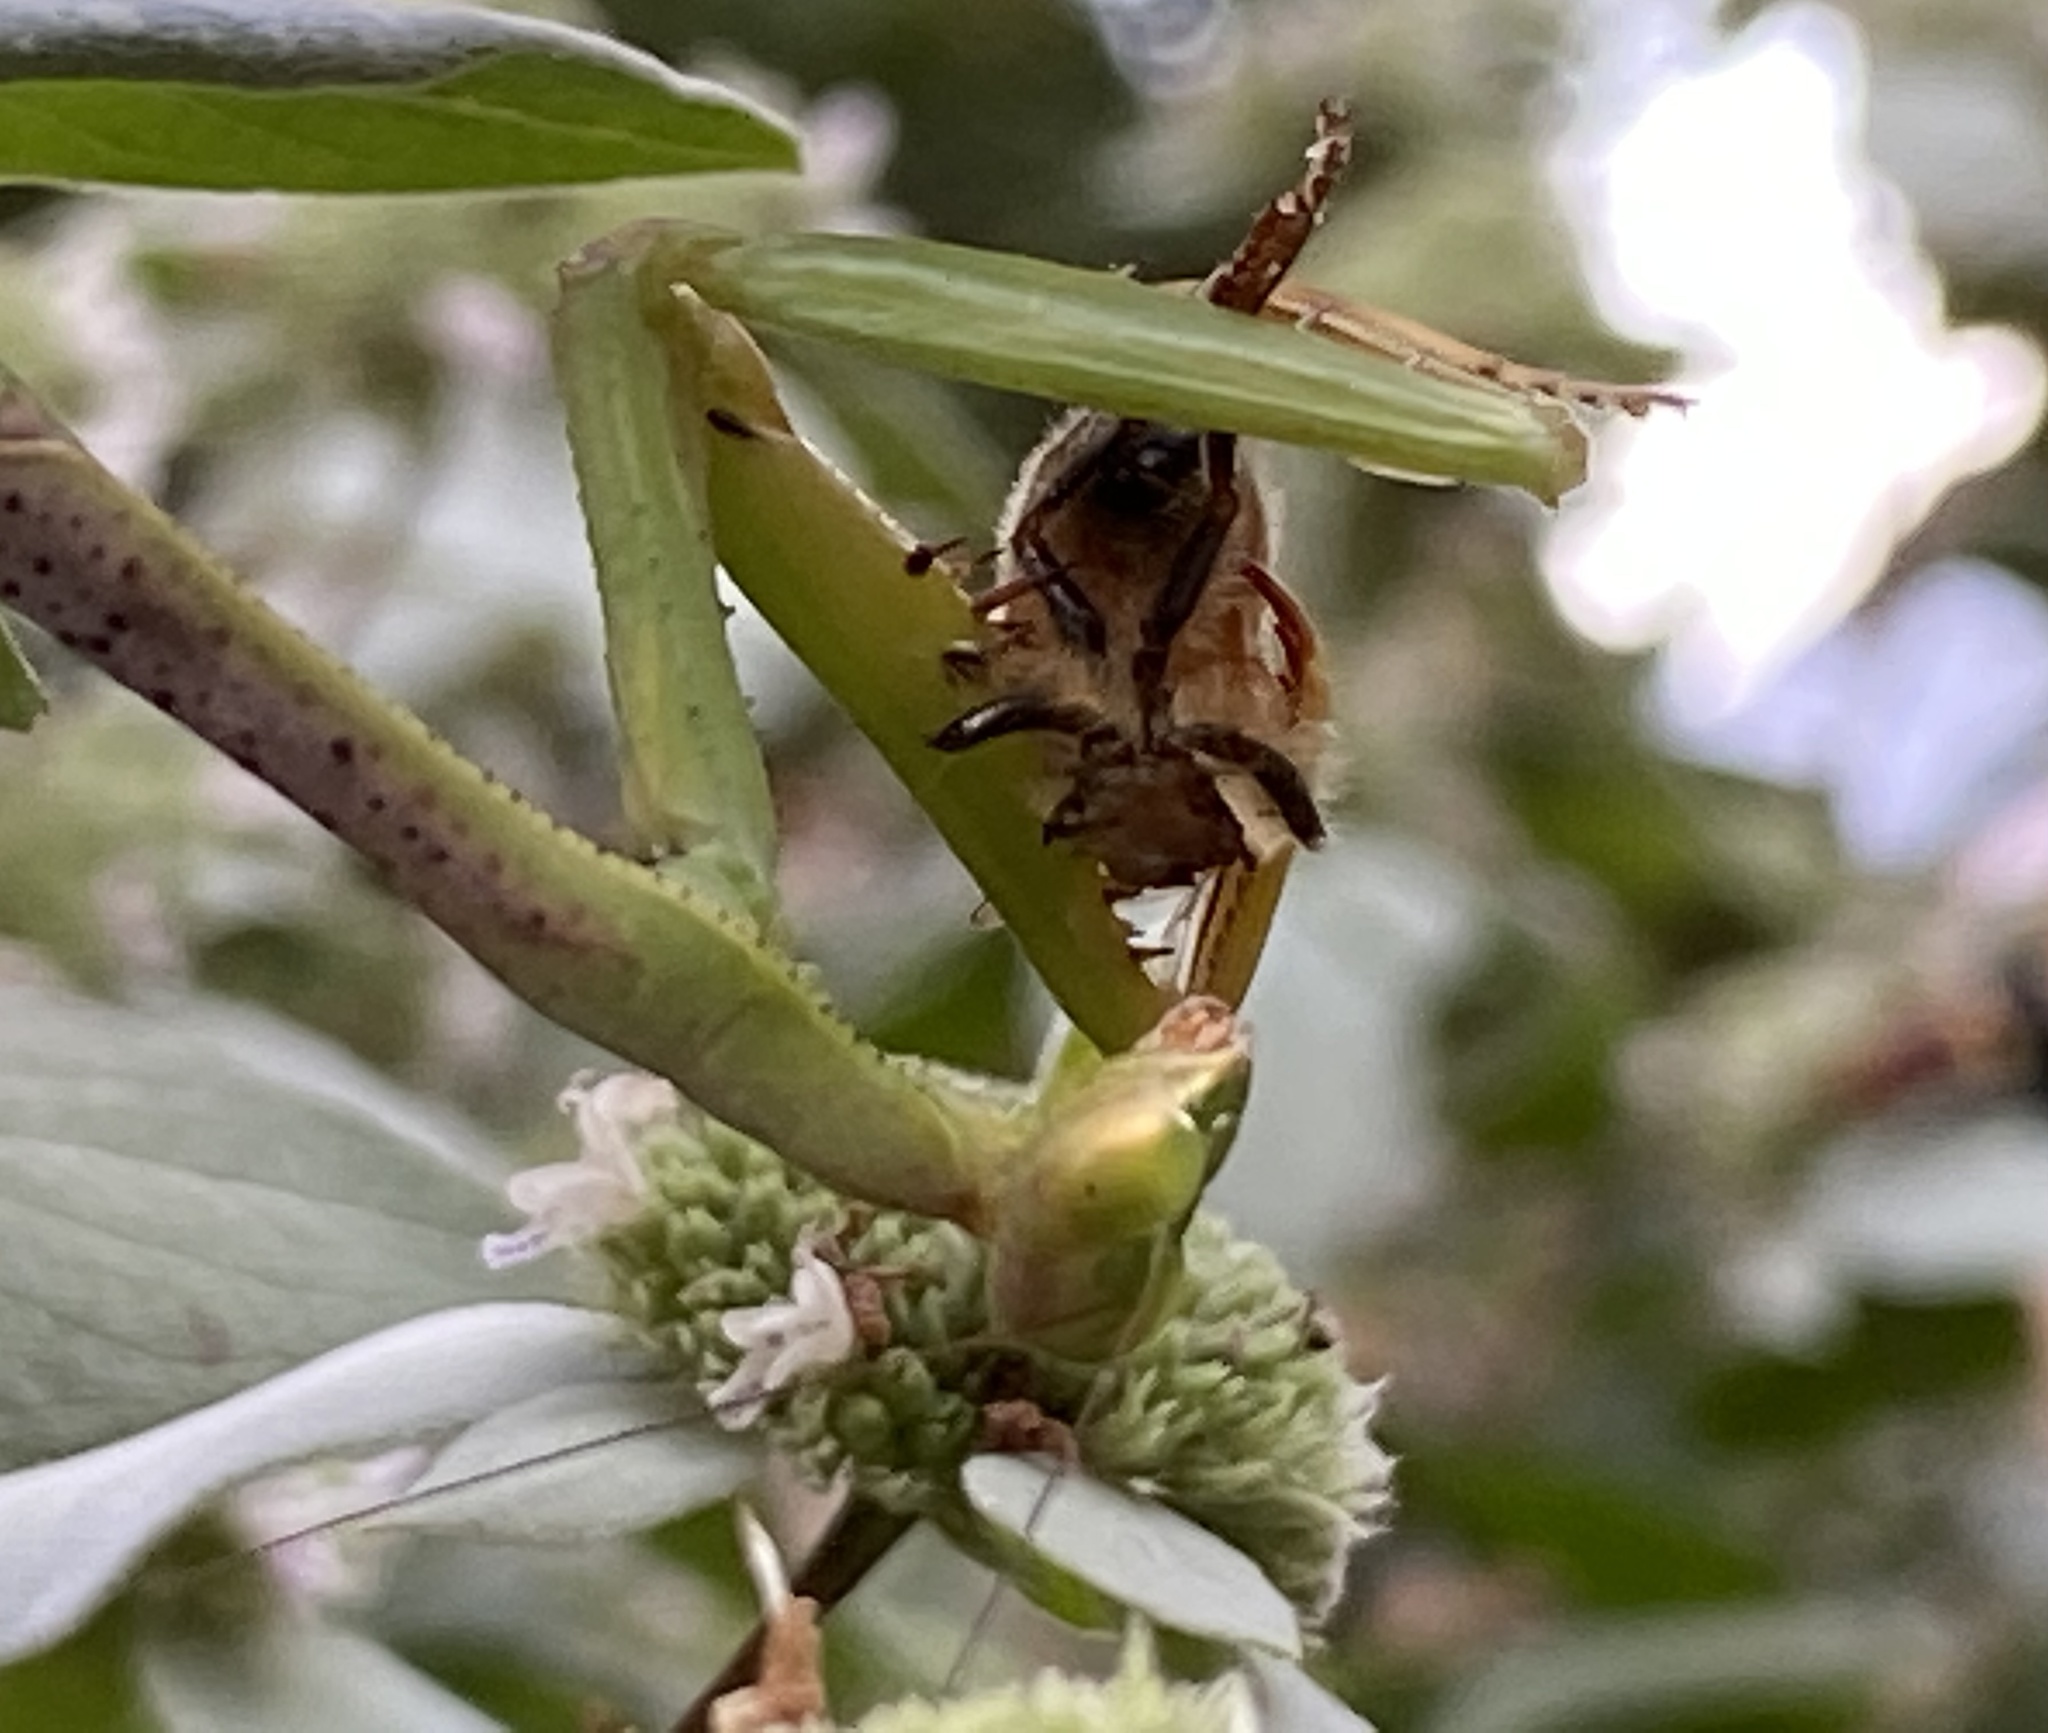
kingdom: Animalia
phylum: Arthropoda
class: Insecta
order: Mantodea
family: Mantidae
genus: Stagmomantis
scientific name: Stagmomantis carolina
